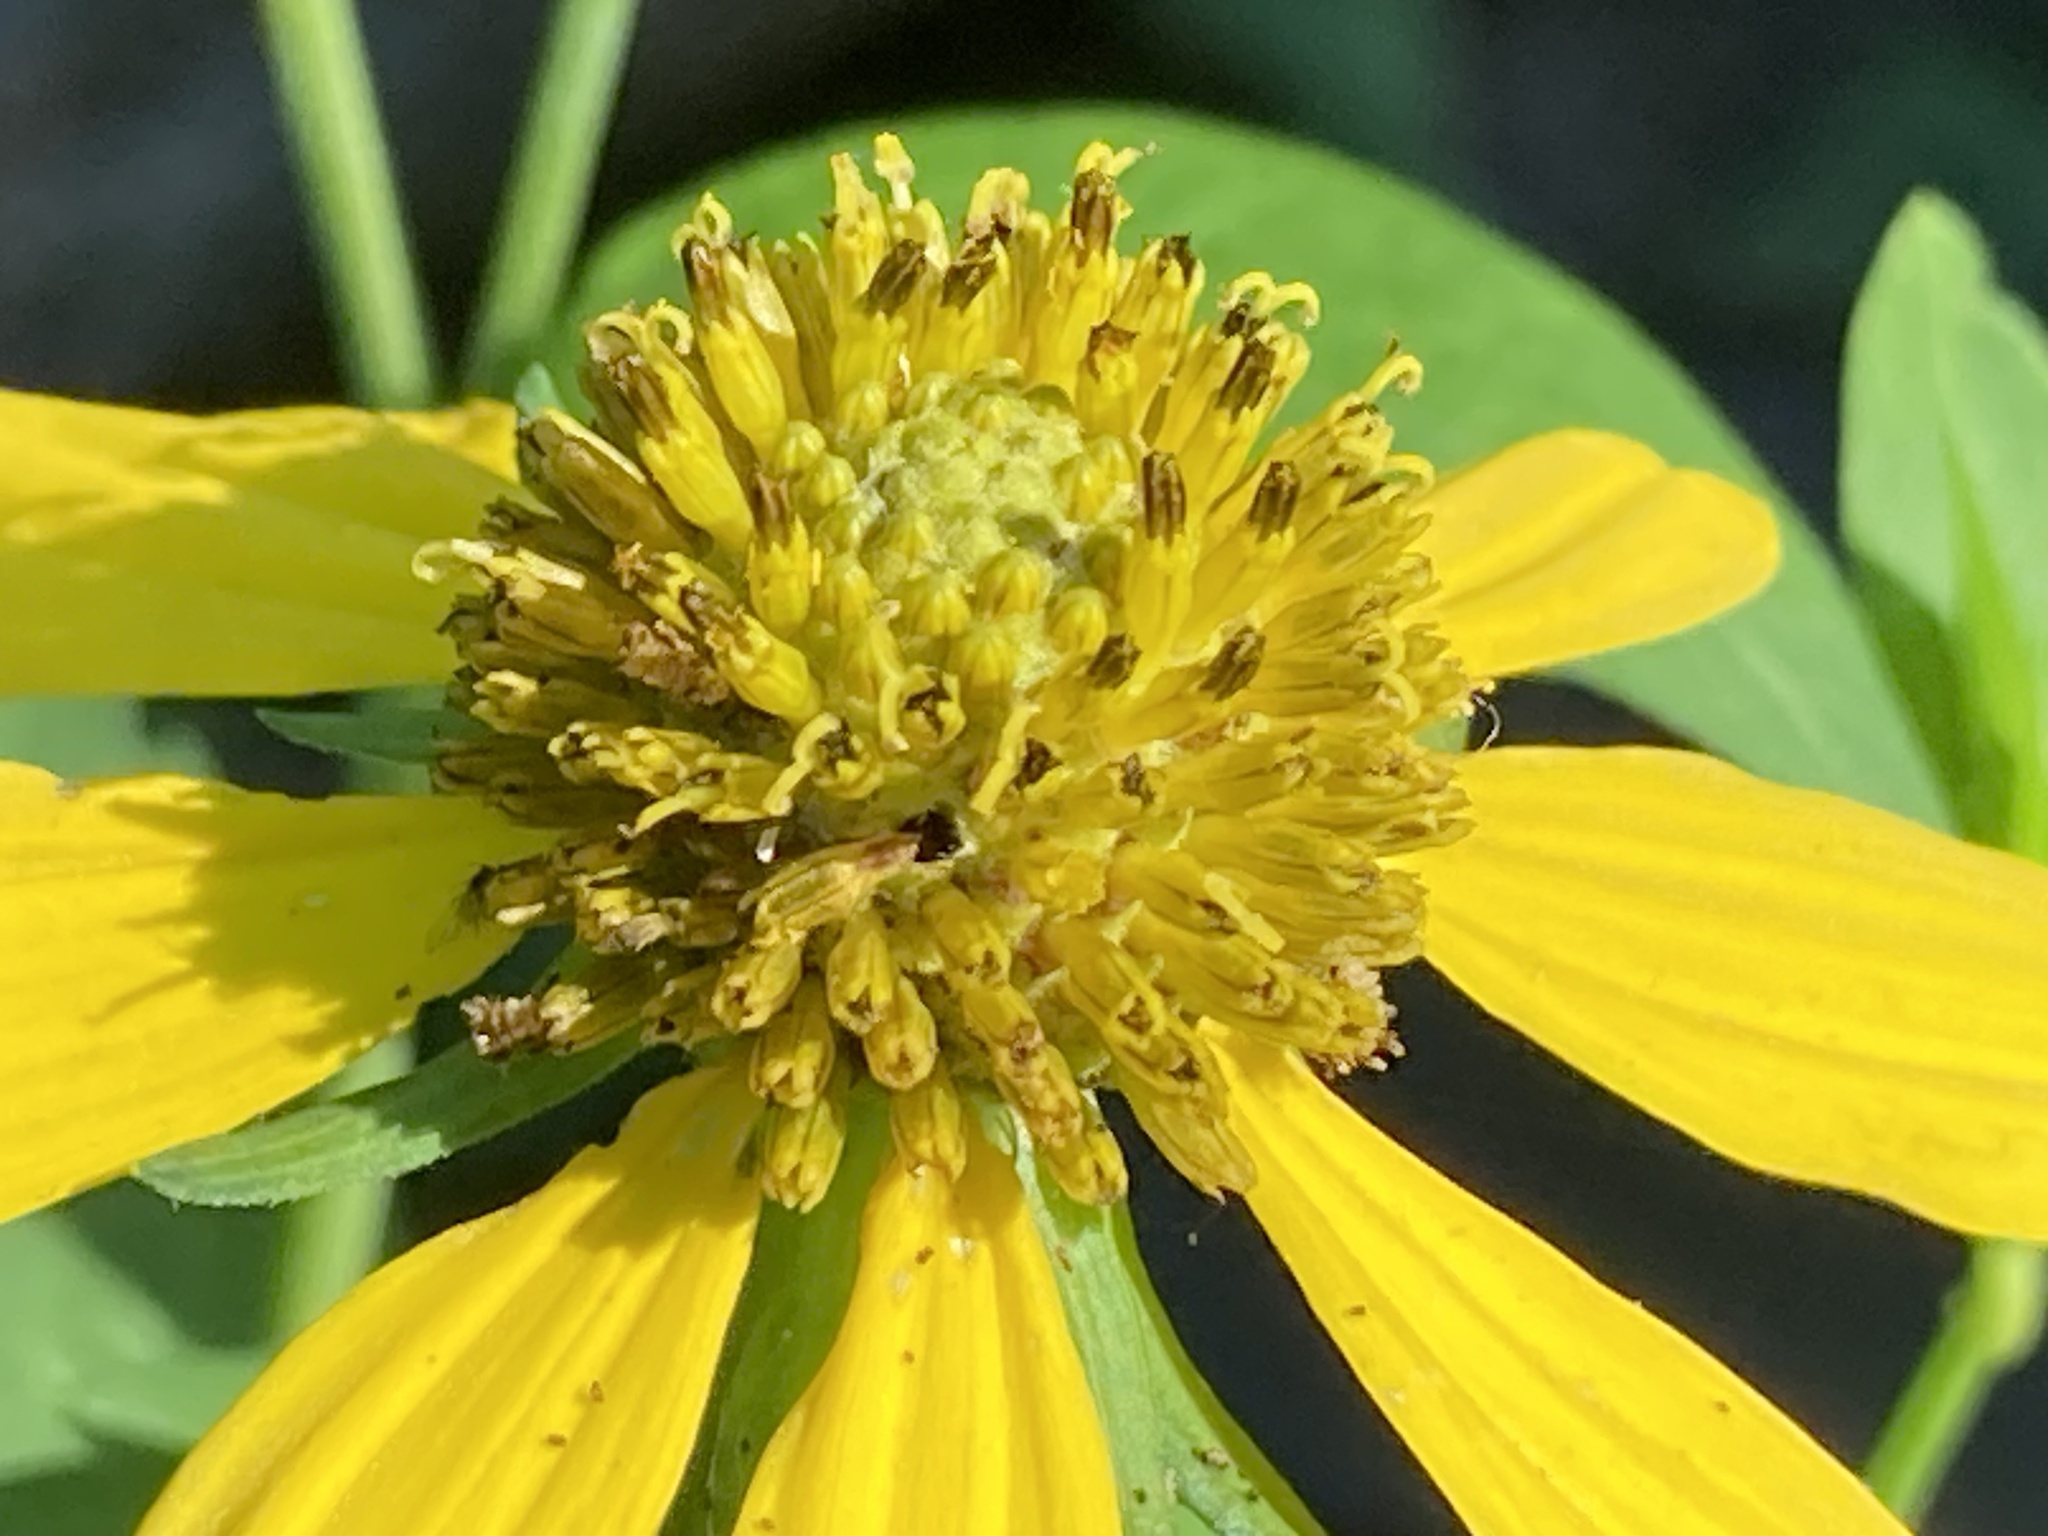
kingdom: Plantae
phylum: Tracheophyta
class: Magnoliopsida
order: Asterales
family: Asteraceae
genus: Rudbeckia
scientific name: Rudbeckia laciniata
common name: Coneflower
